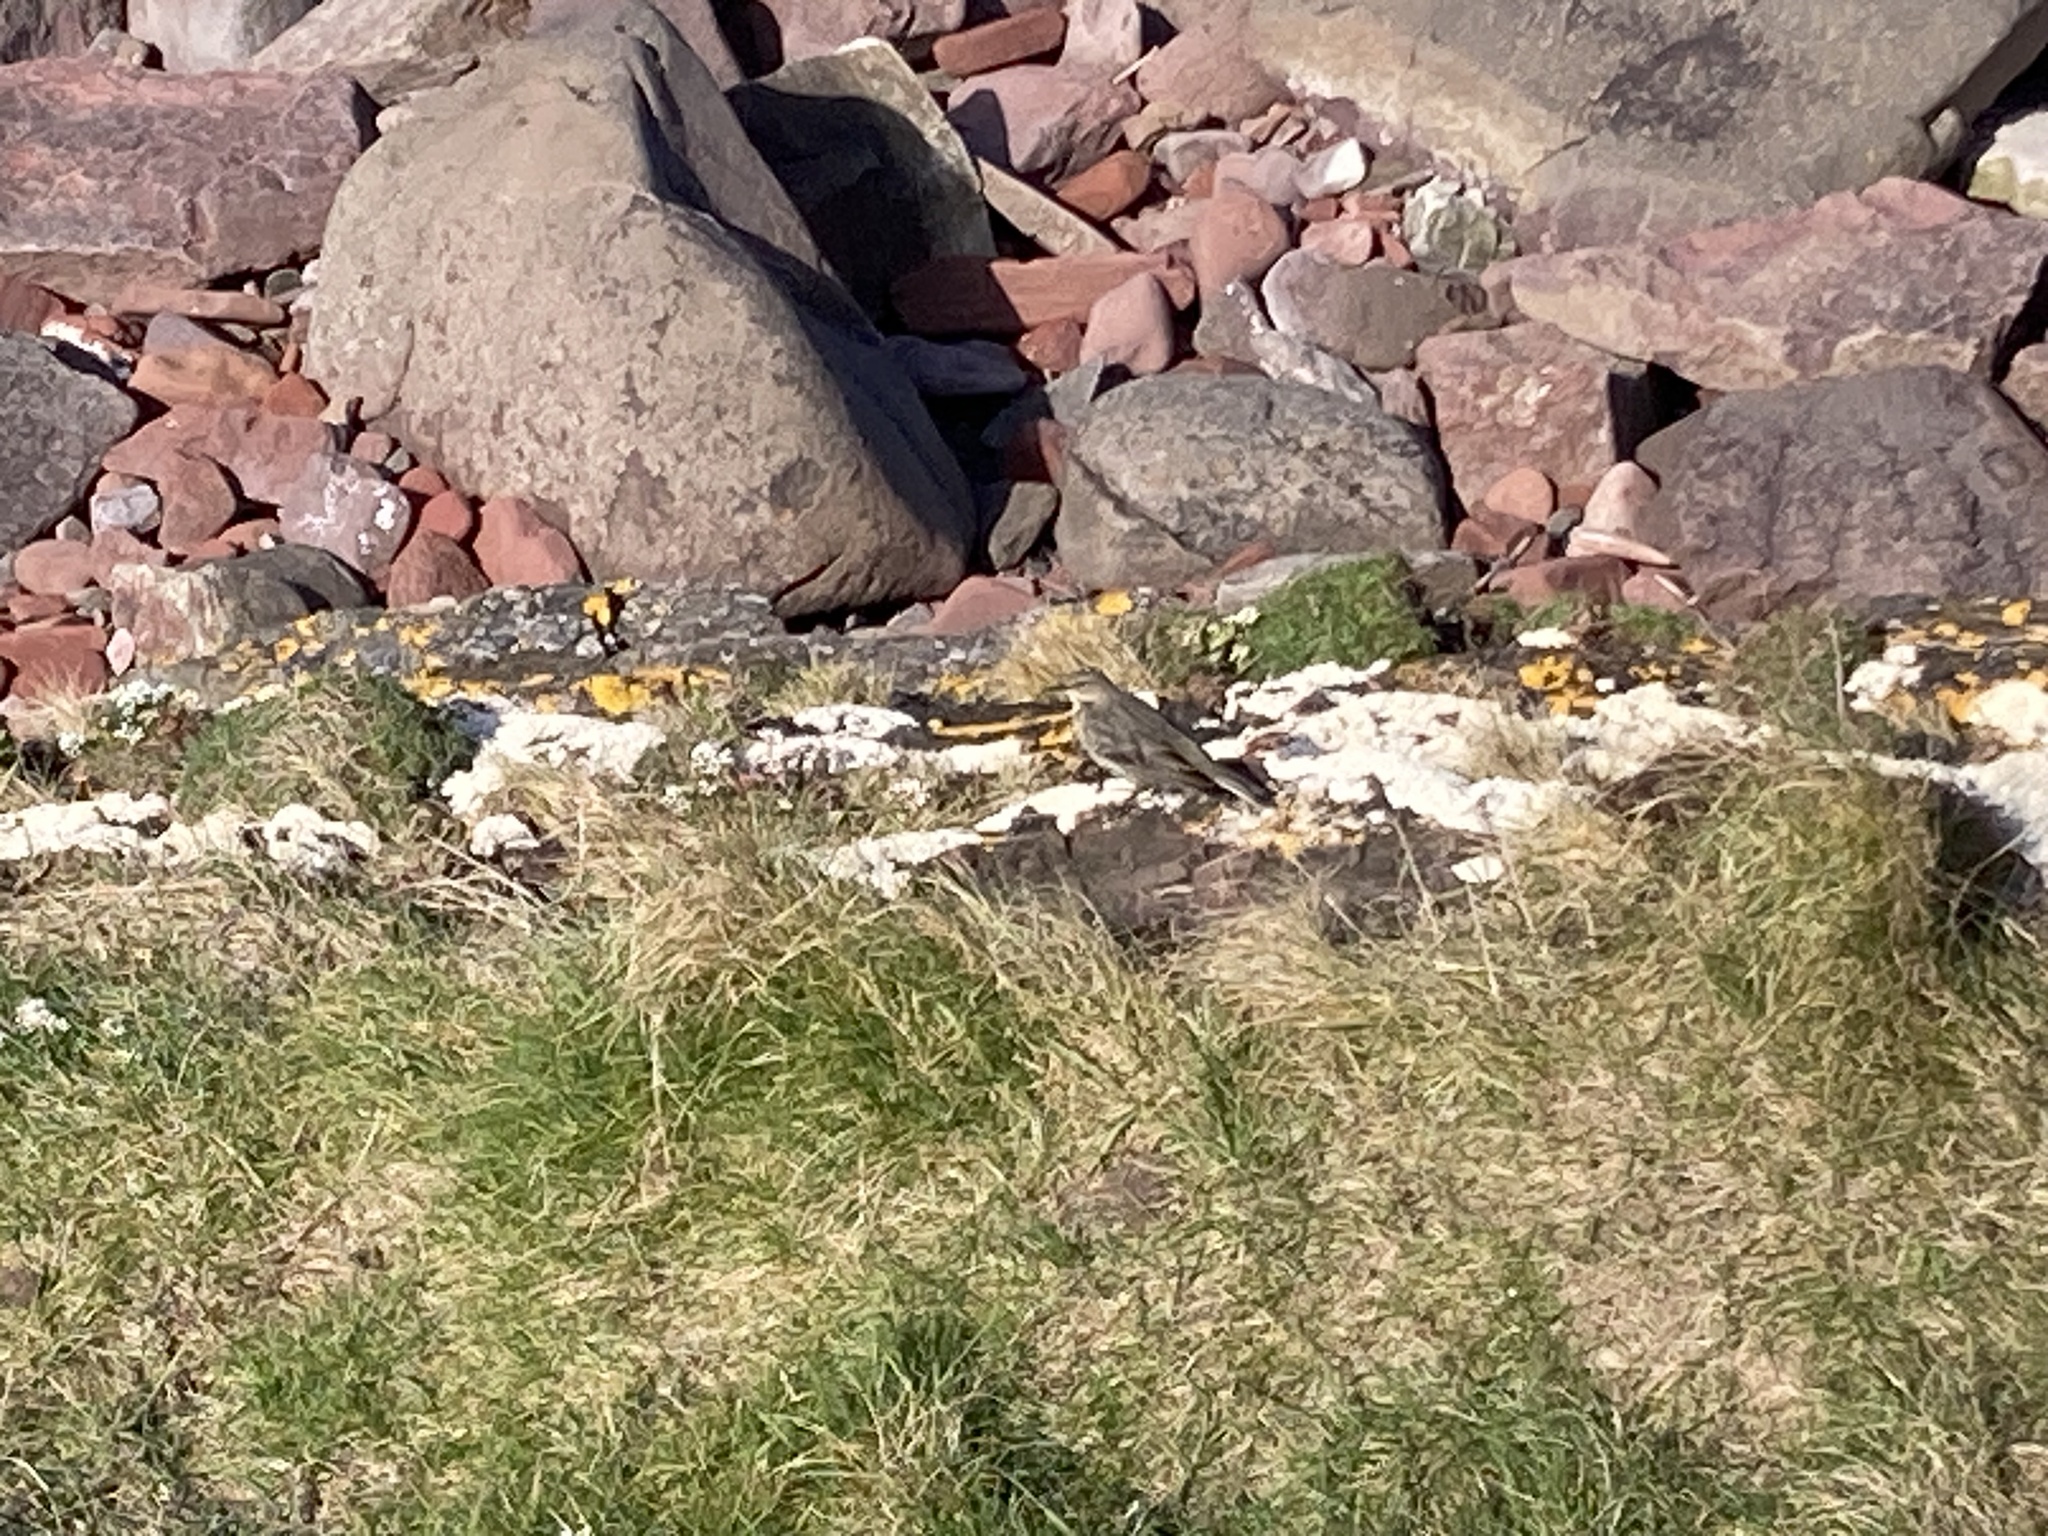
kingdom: Animalia
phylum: Chordata
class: Aves
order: Passeriformes
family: Motacillidae
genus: Anthus
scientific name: Anthus petrosus
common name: Eurasian rock pipit
